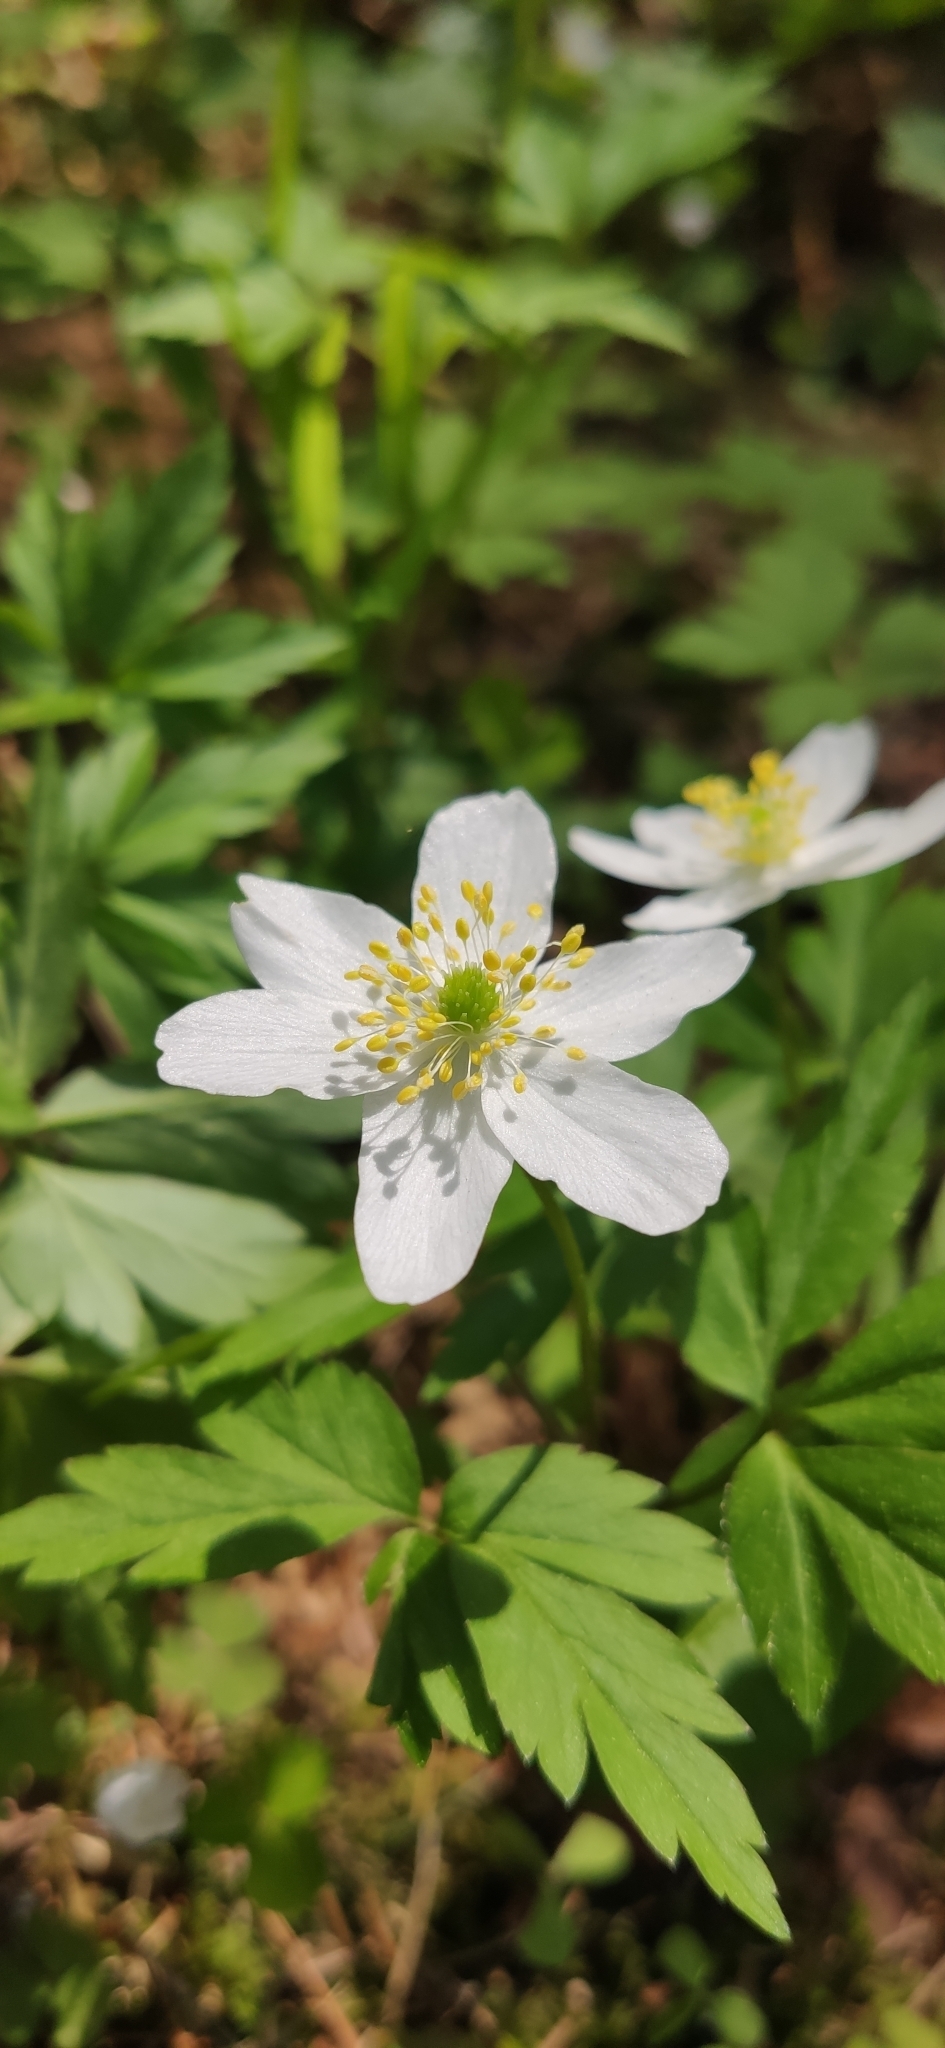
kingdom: Plantae
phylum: Tracheophyta
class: Magnoliopsida
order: Ranunculales
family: Ranunculaceae
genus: Anemone
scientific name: Anemone nemorosa
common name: Wood anemone
